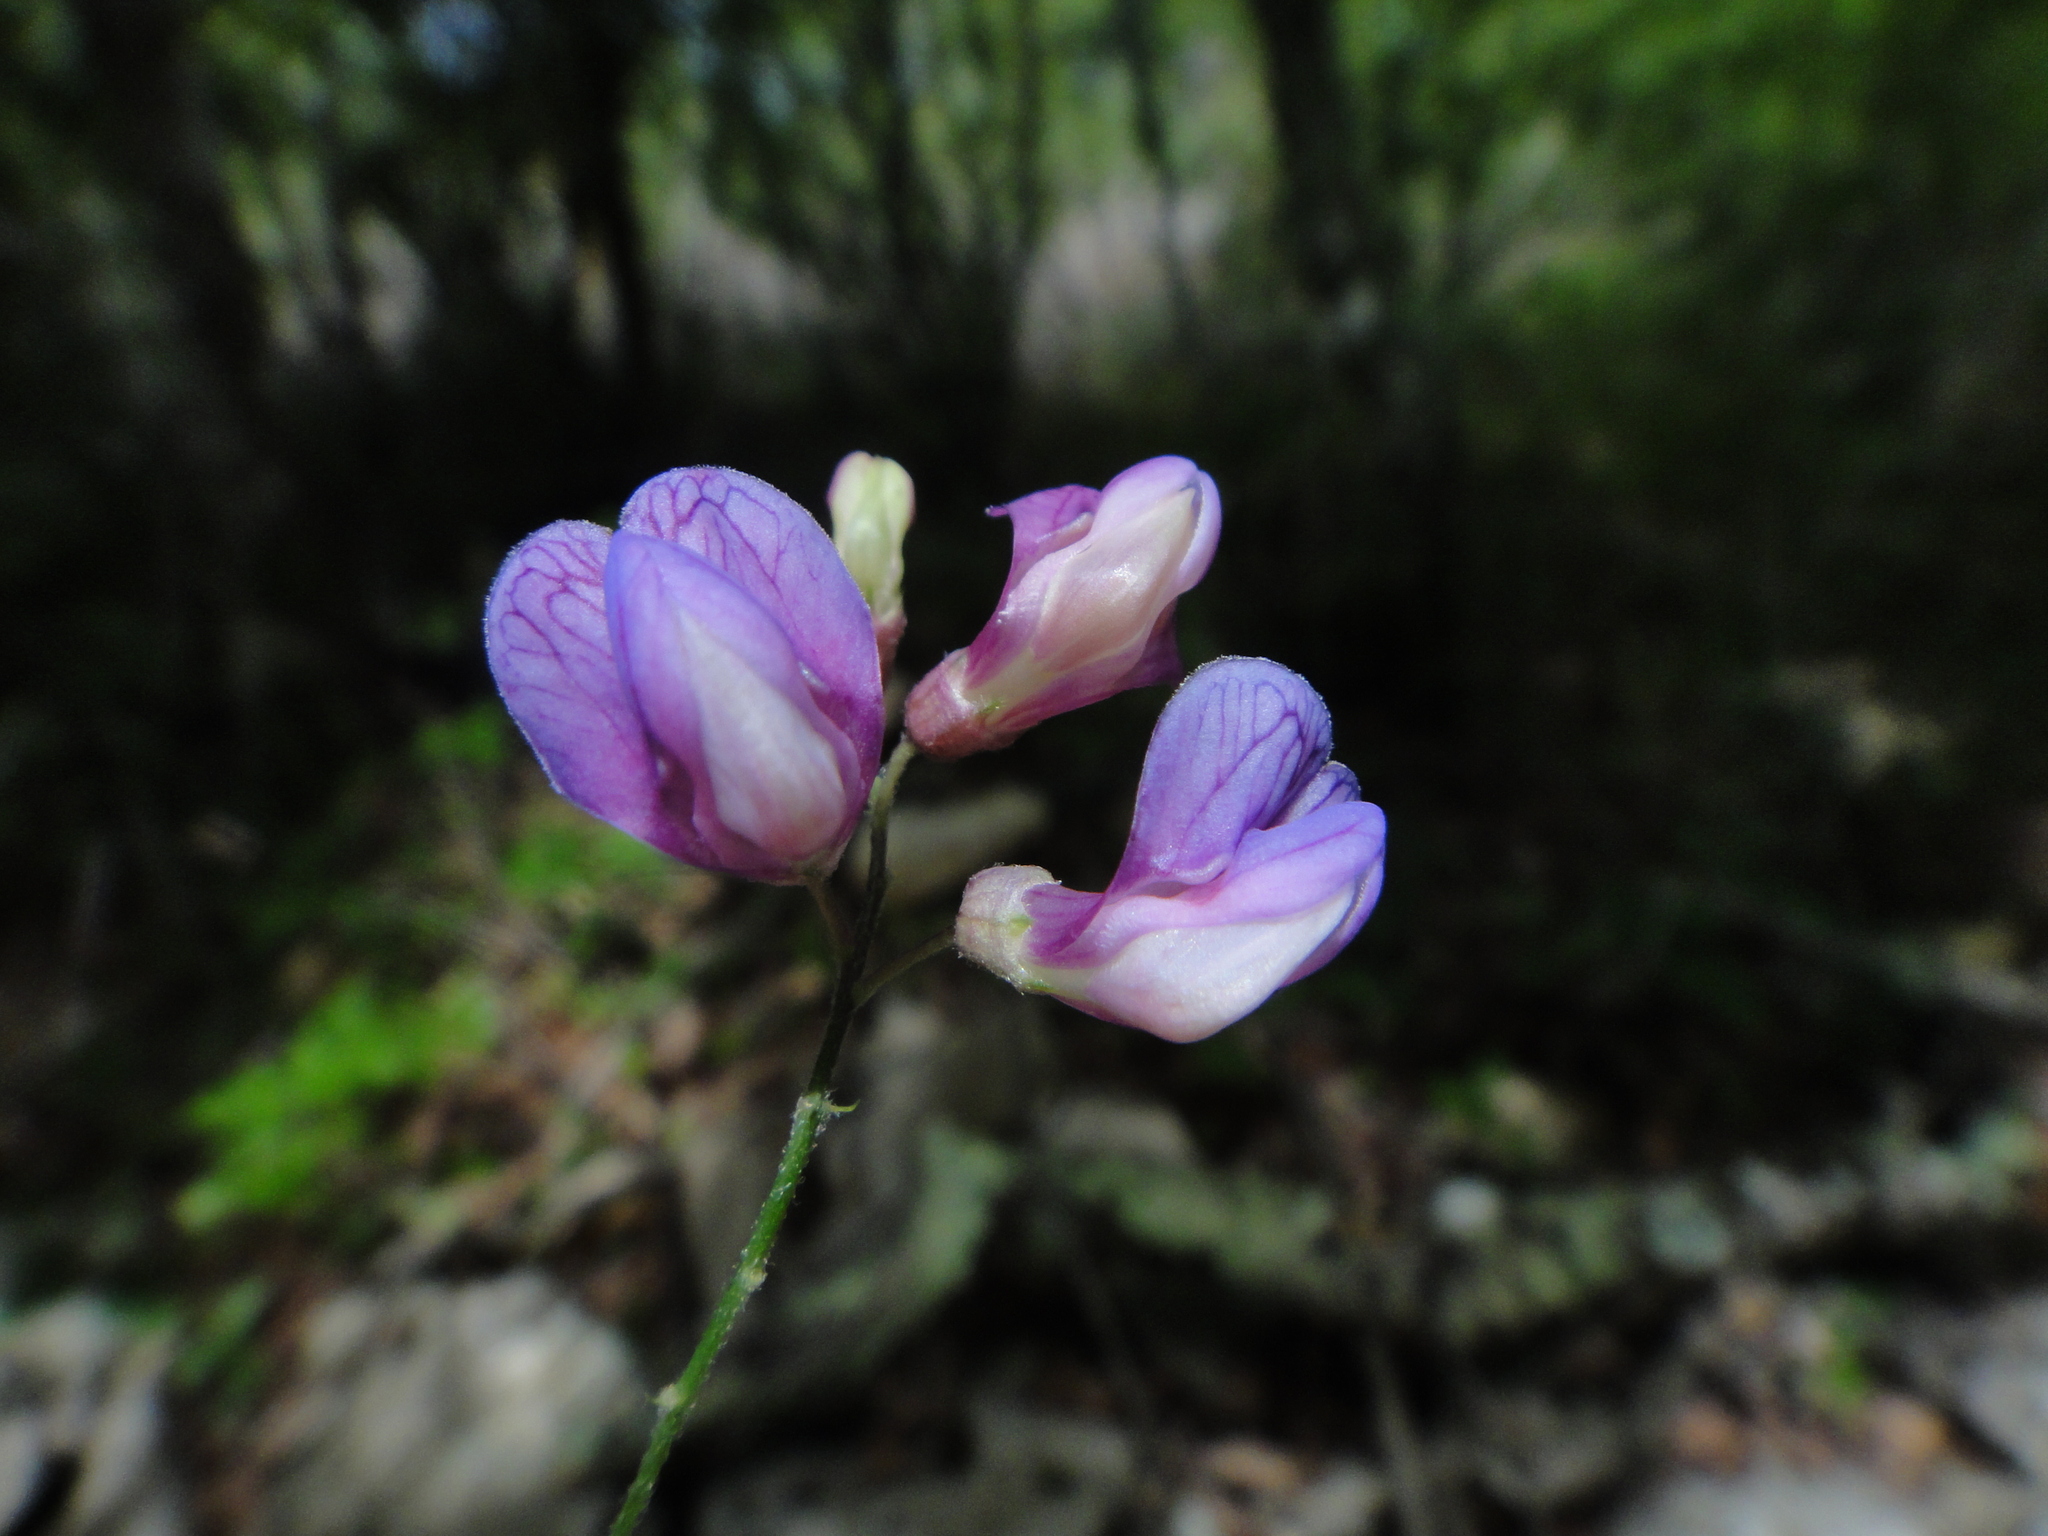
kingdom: Plantae
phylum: Tracheophyta
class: Magnoliopsida
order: Fabales
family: Fabaceae
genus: Lathyrus
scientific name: Lathyrus niger
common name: Black pea
